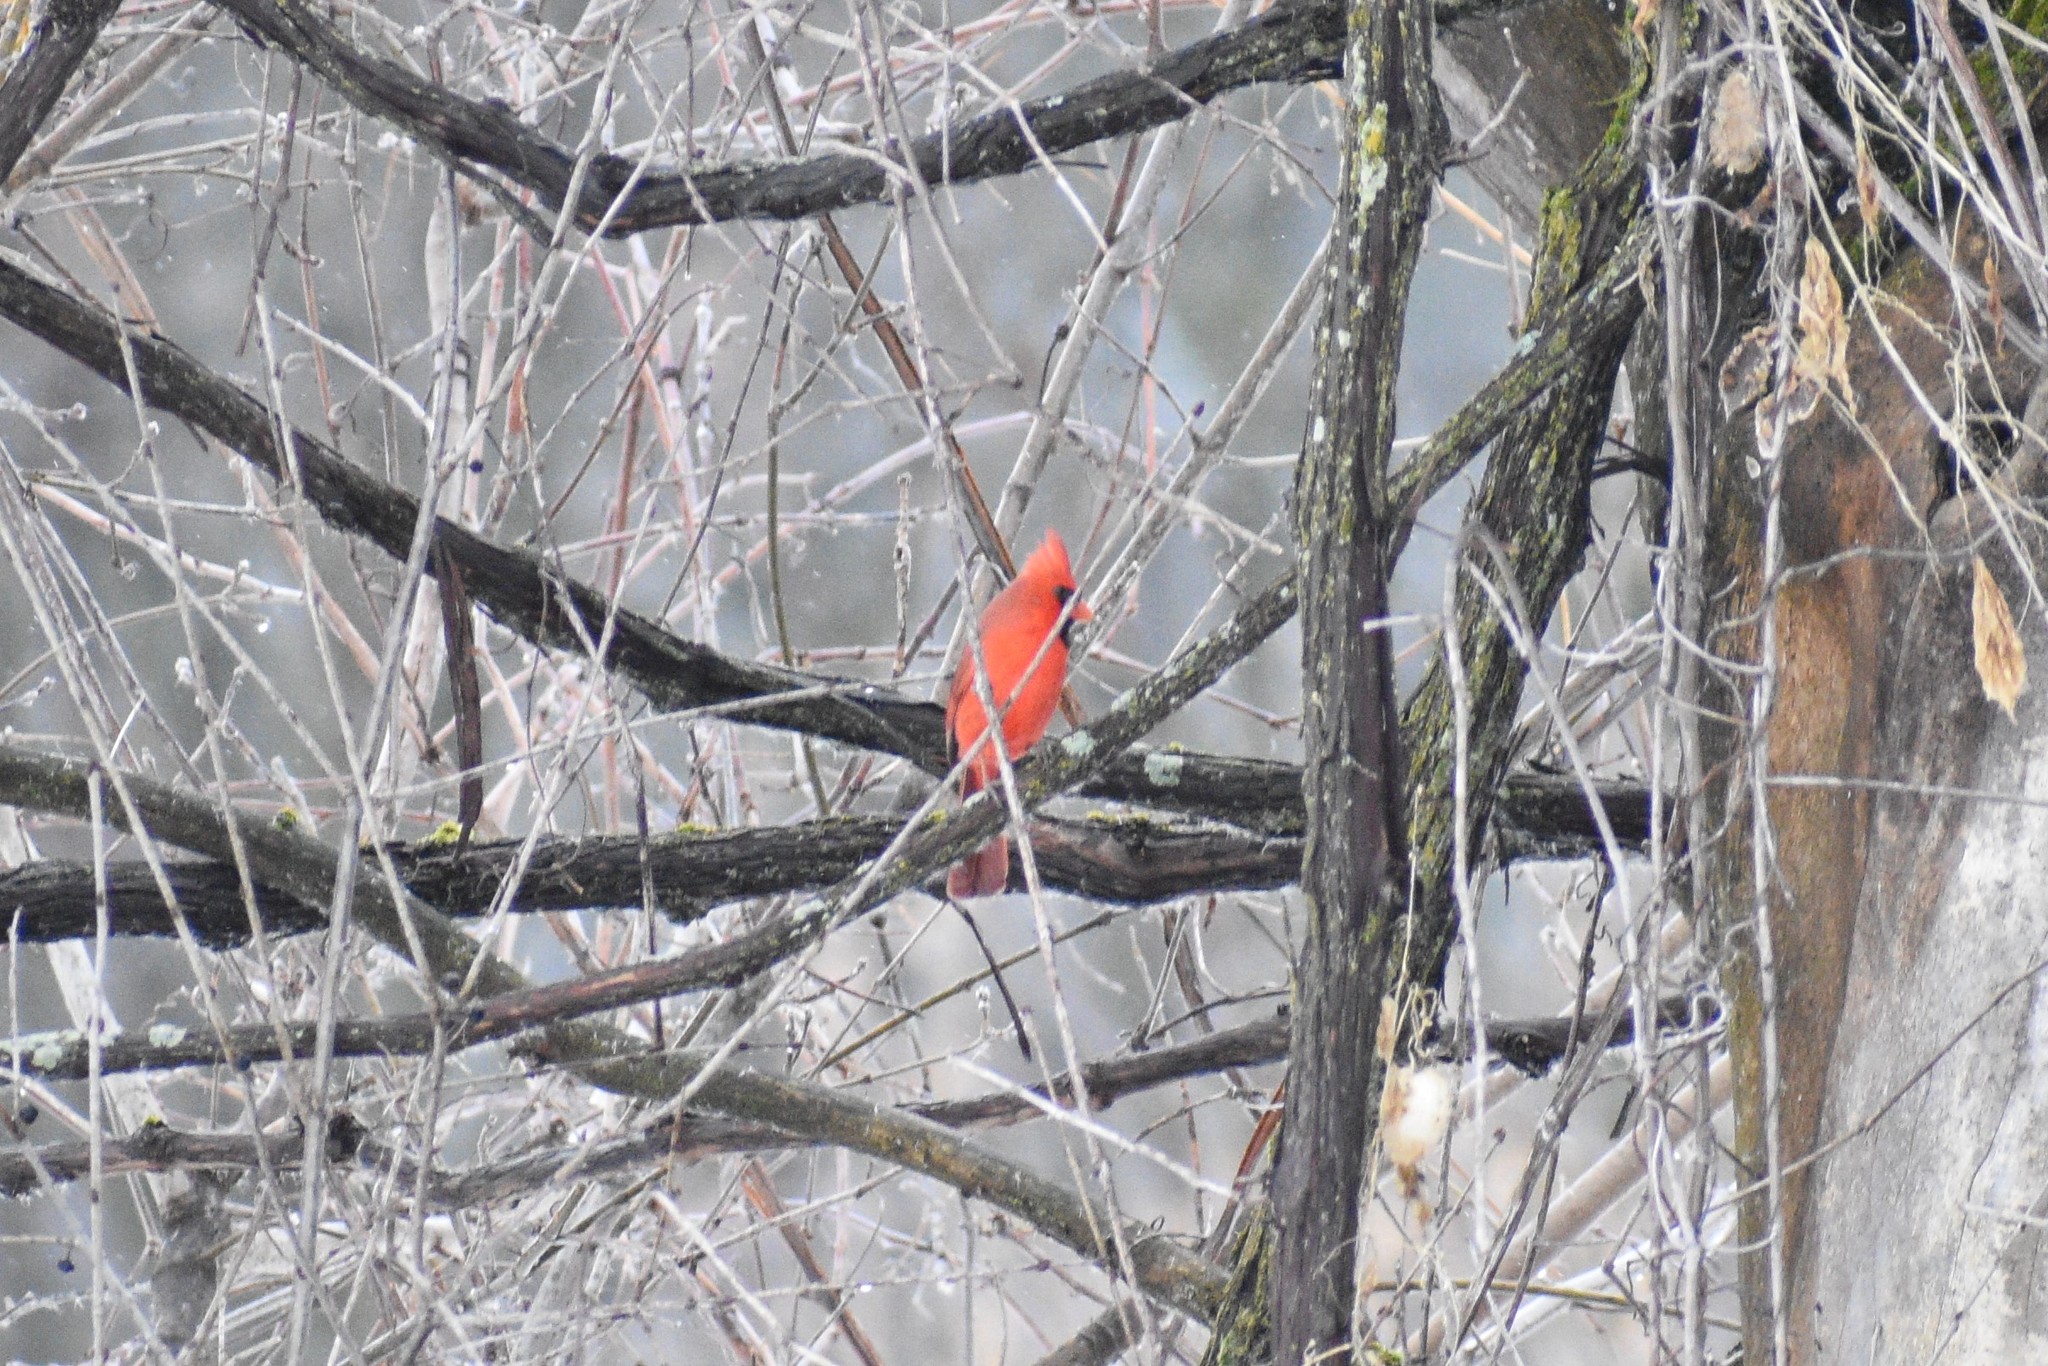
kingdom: Animalia
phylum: Chordata
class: Aves
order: Passeriformes
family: Cardinalidae
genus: Cardinalis
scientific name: Cardinalis cardinalis
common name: Northern cardinal
